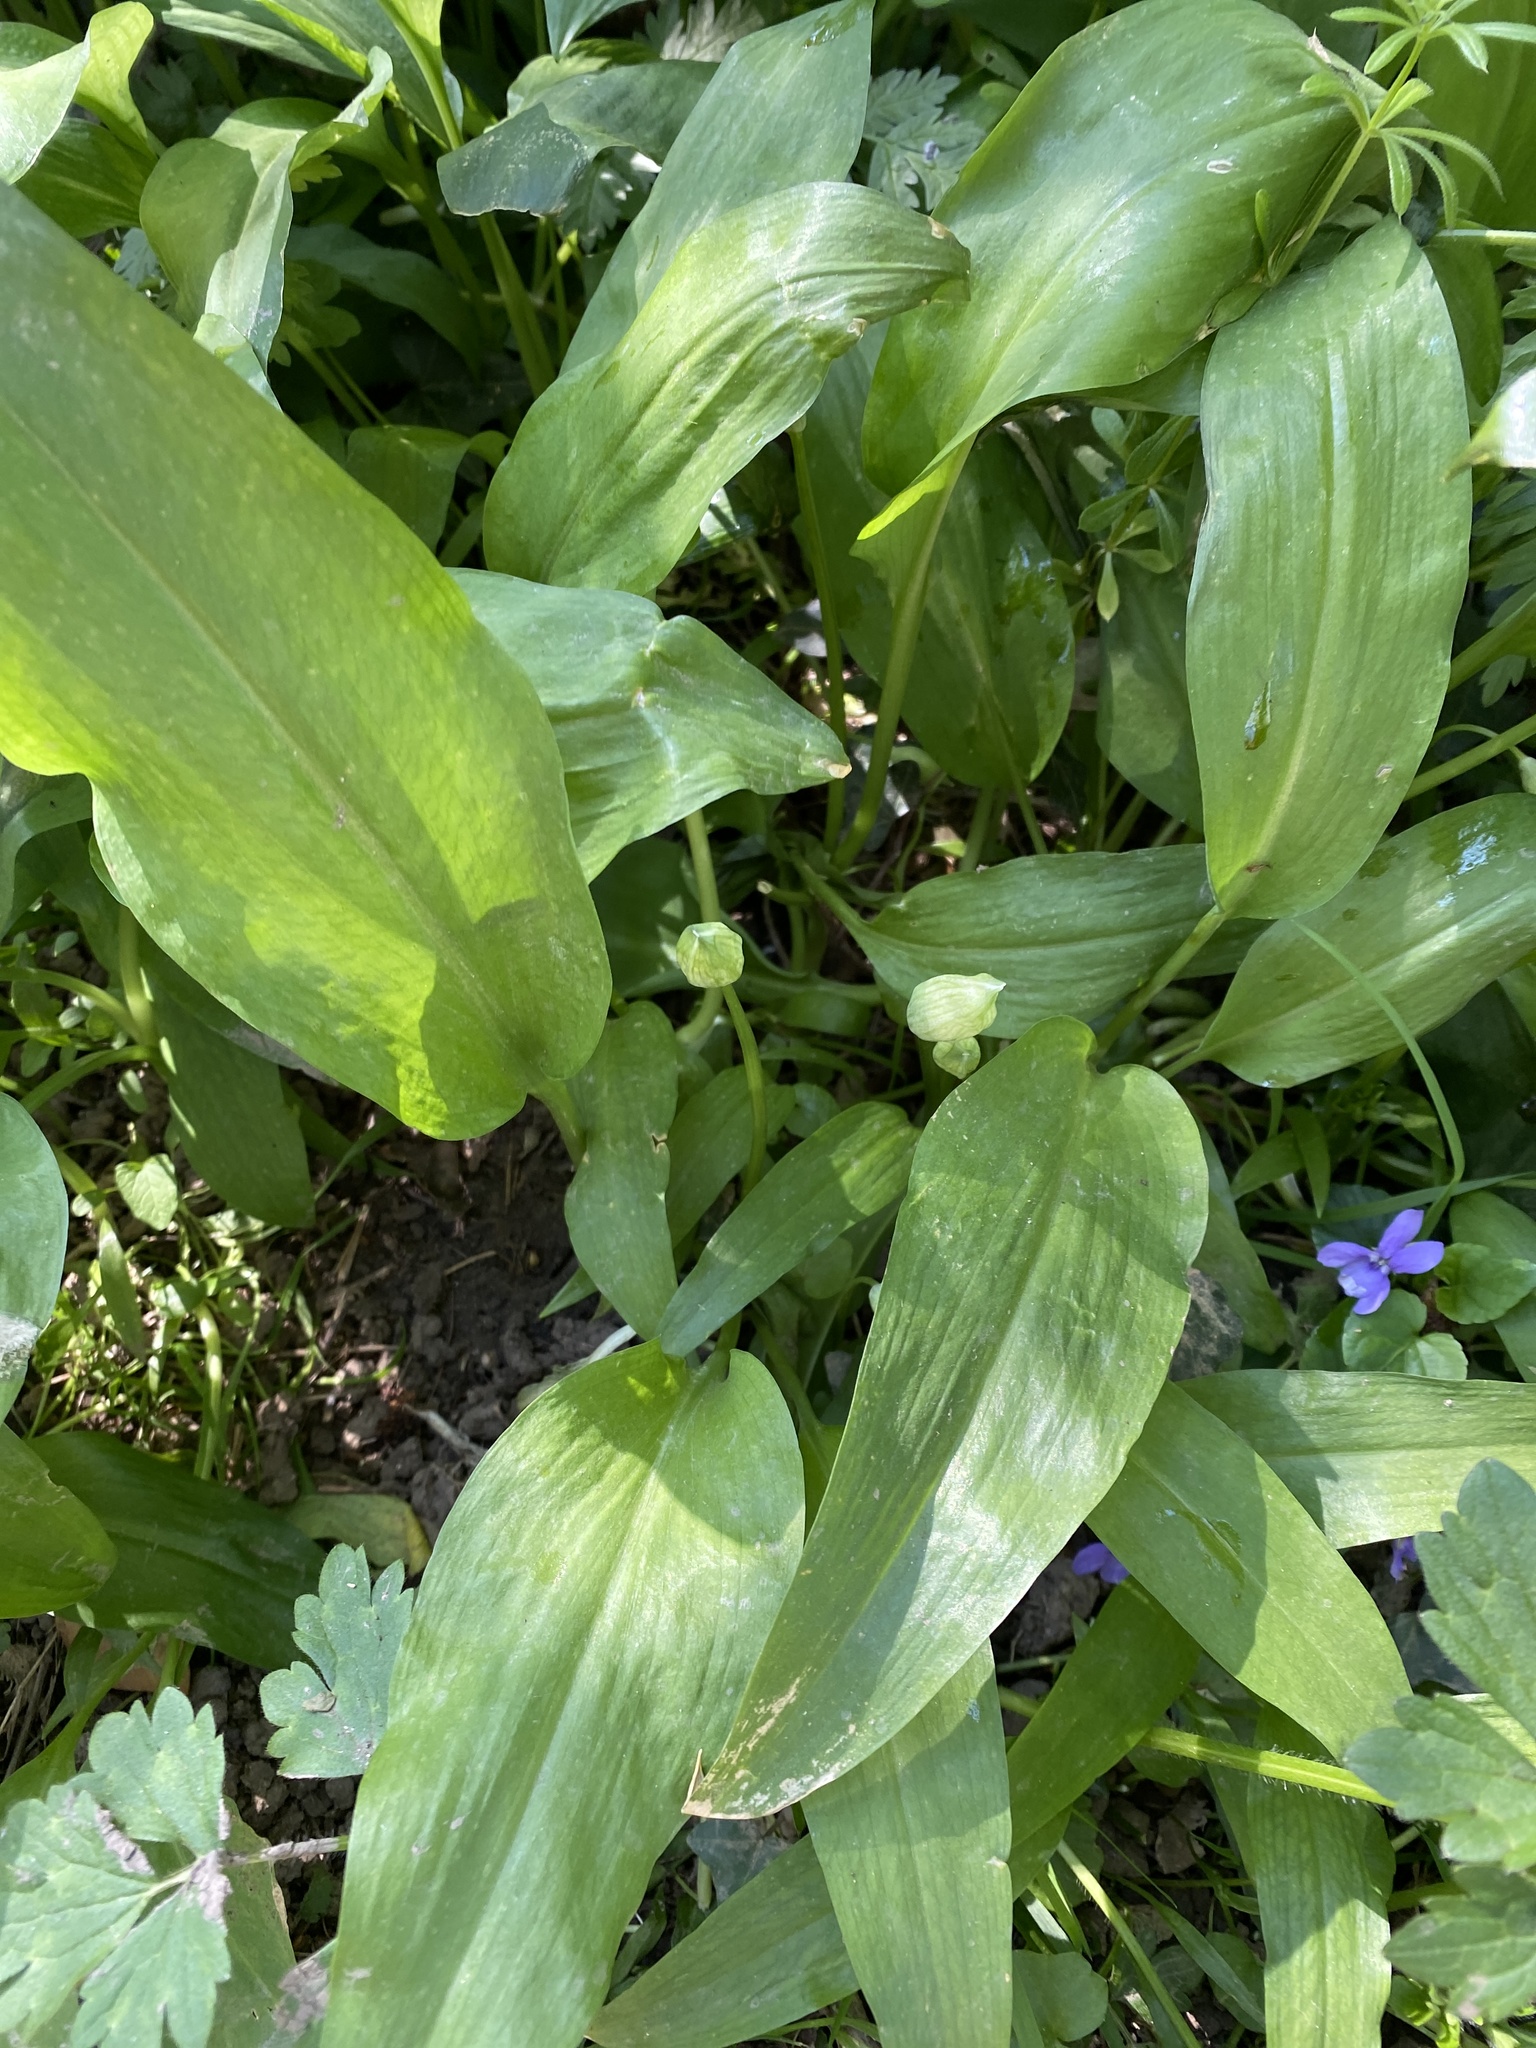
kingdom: Plantae
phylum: Tracheophyta
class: Liliopsida
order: Asparagales
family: Amaryllidaceae
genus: Allium
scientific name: Allium ursinum
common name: Ramsons
